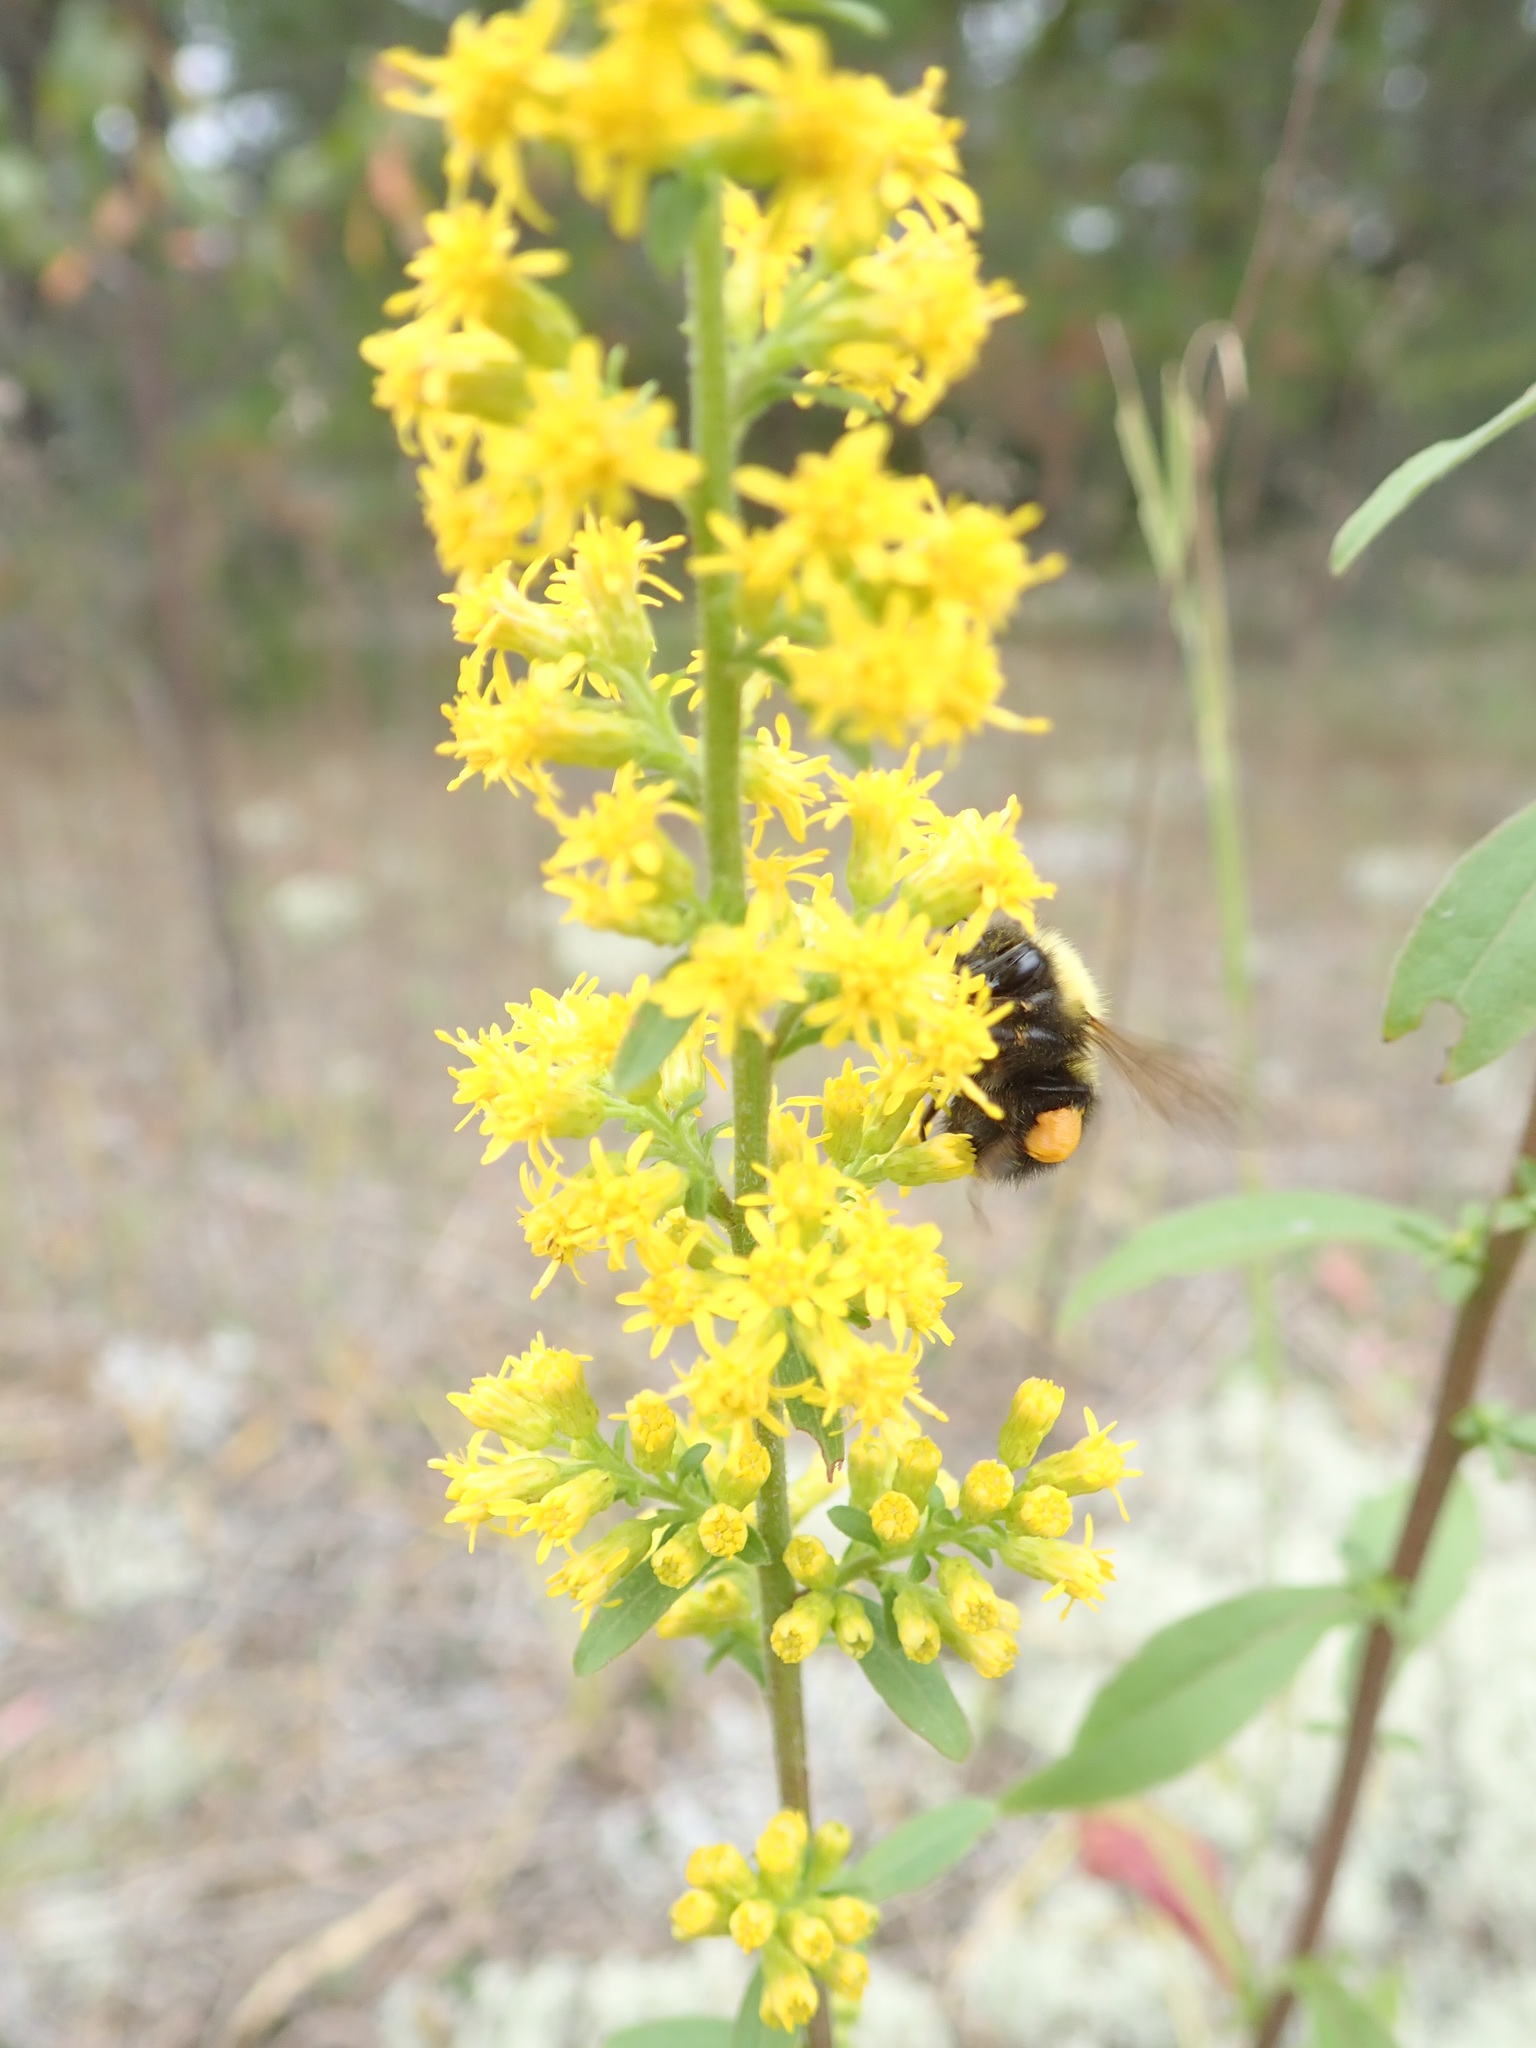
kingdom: Animalia
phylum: Arthropoda
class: Insecta
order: Hymenoptera
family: Apidae
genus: Bombus
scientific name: Bombus perplexus
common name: Confusing bumble bee
